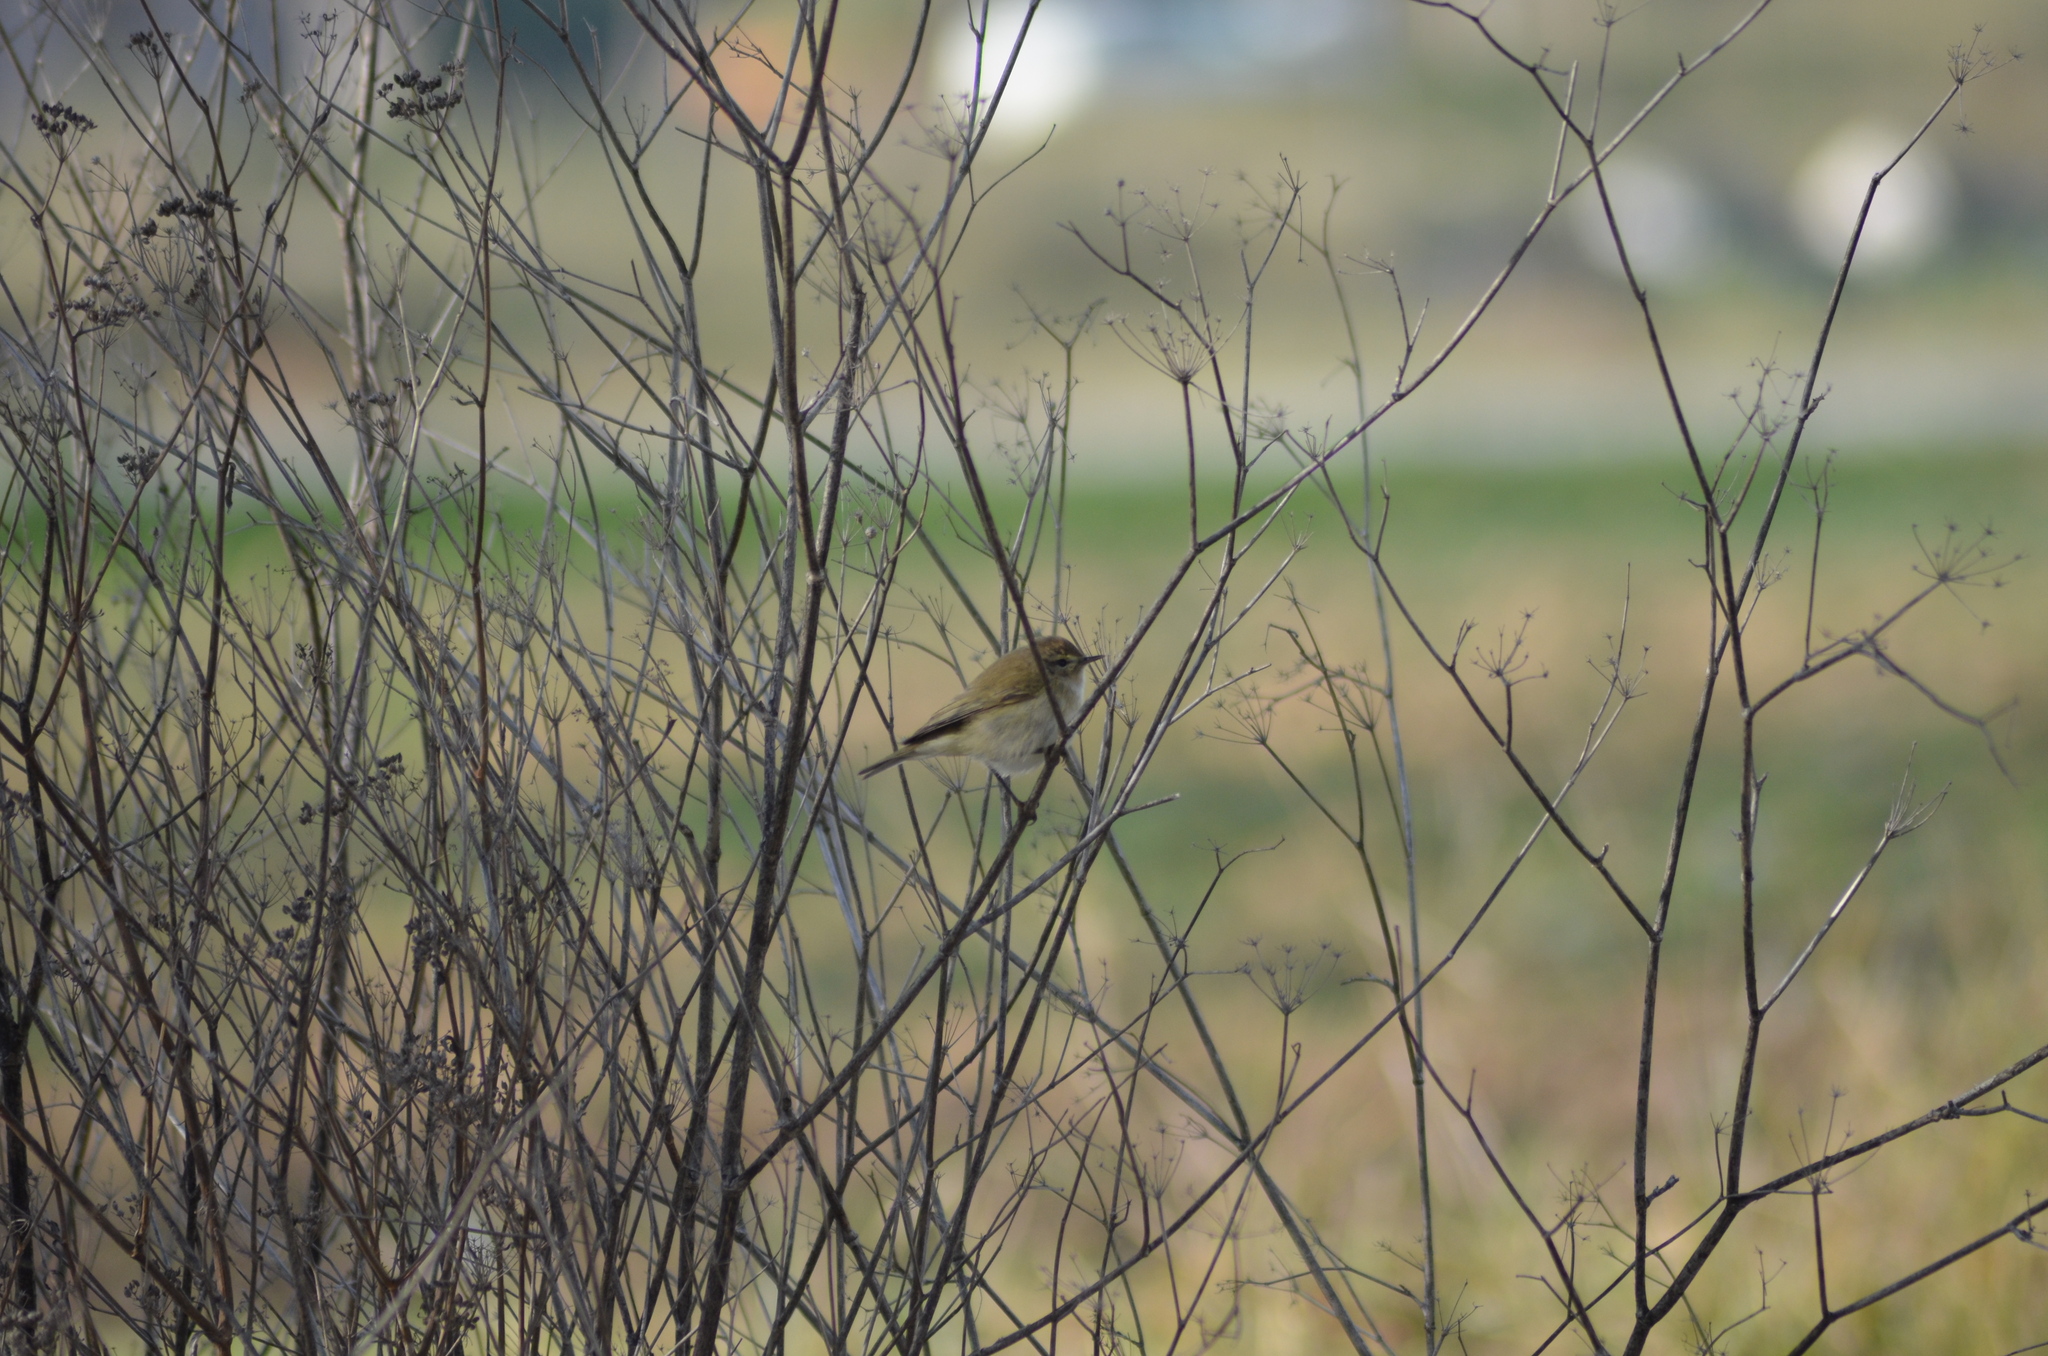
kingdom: Animalia
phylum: Chordata
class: Aves
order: Passeriformes
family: Phylloscopidae
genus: Phylloscopus
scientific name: Phylloscopus collybita
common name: Common chiffchaff
